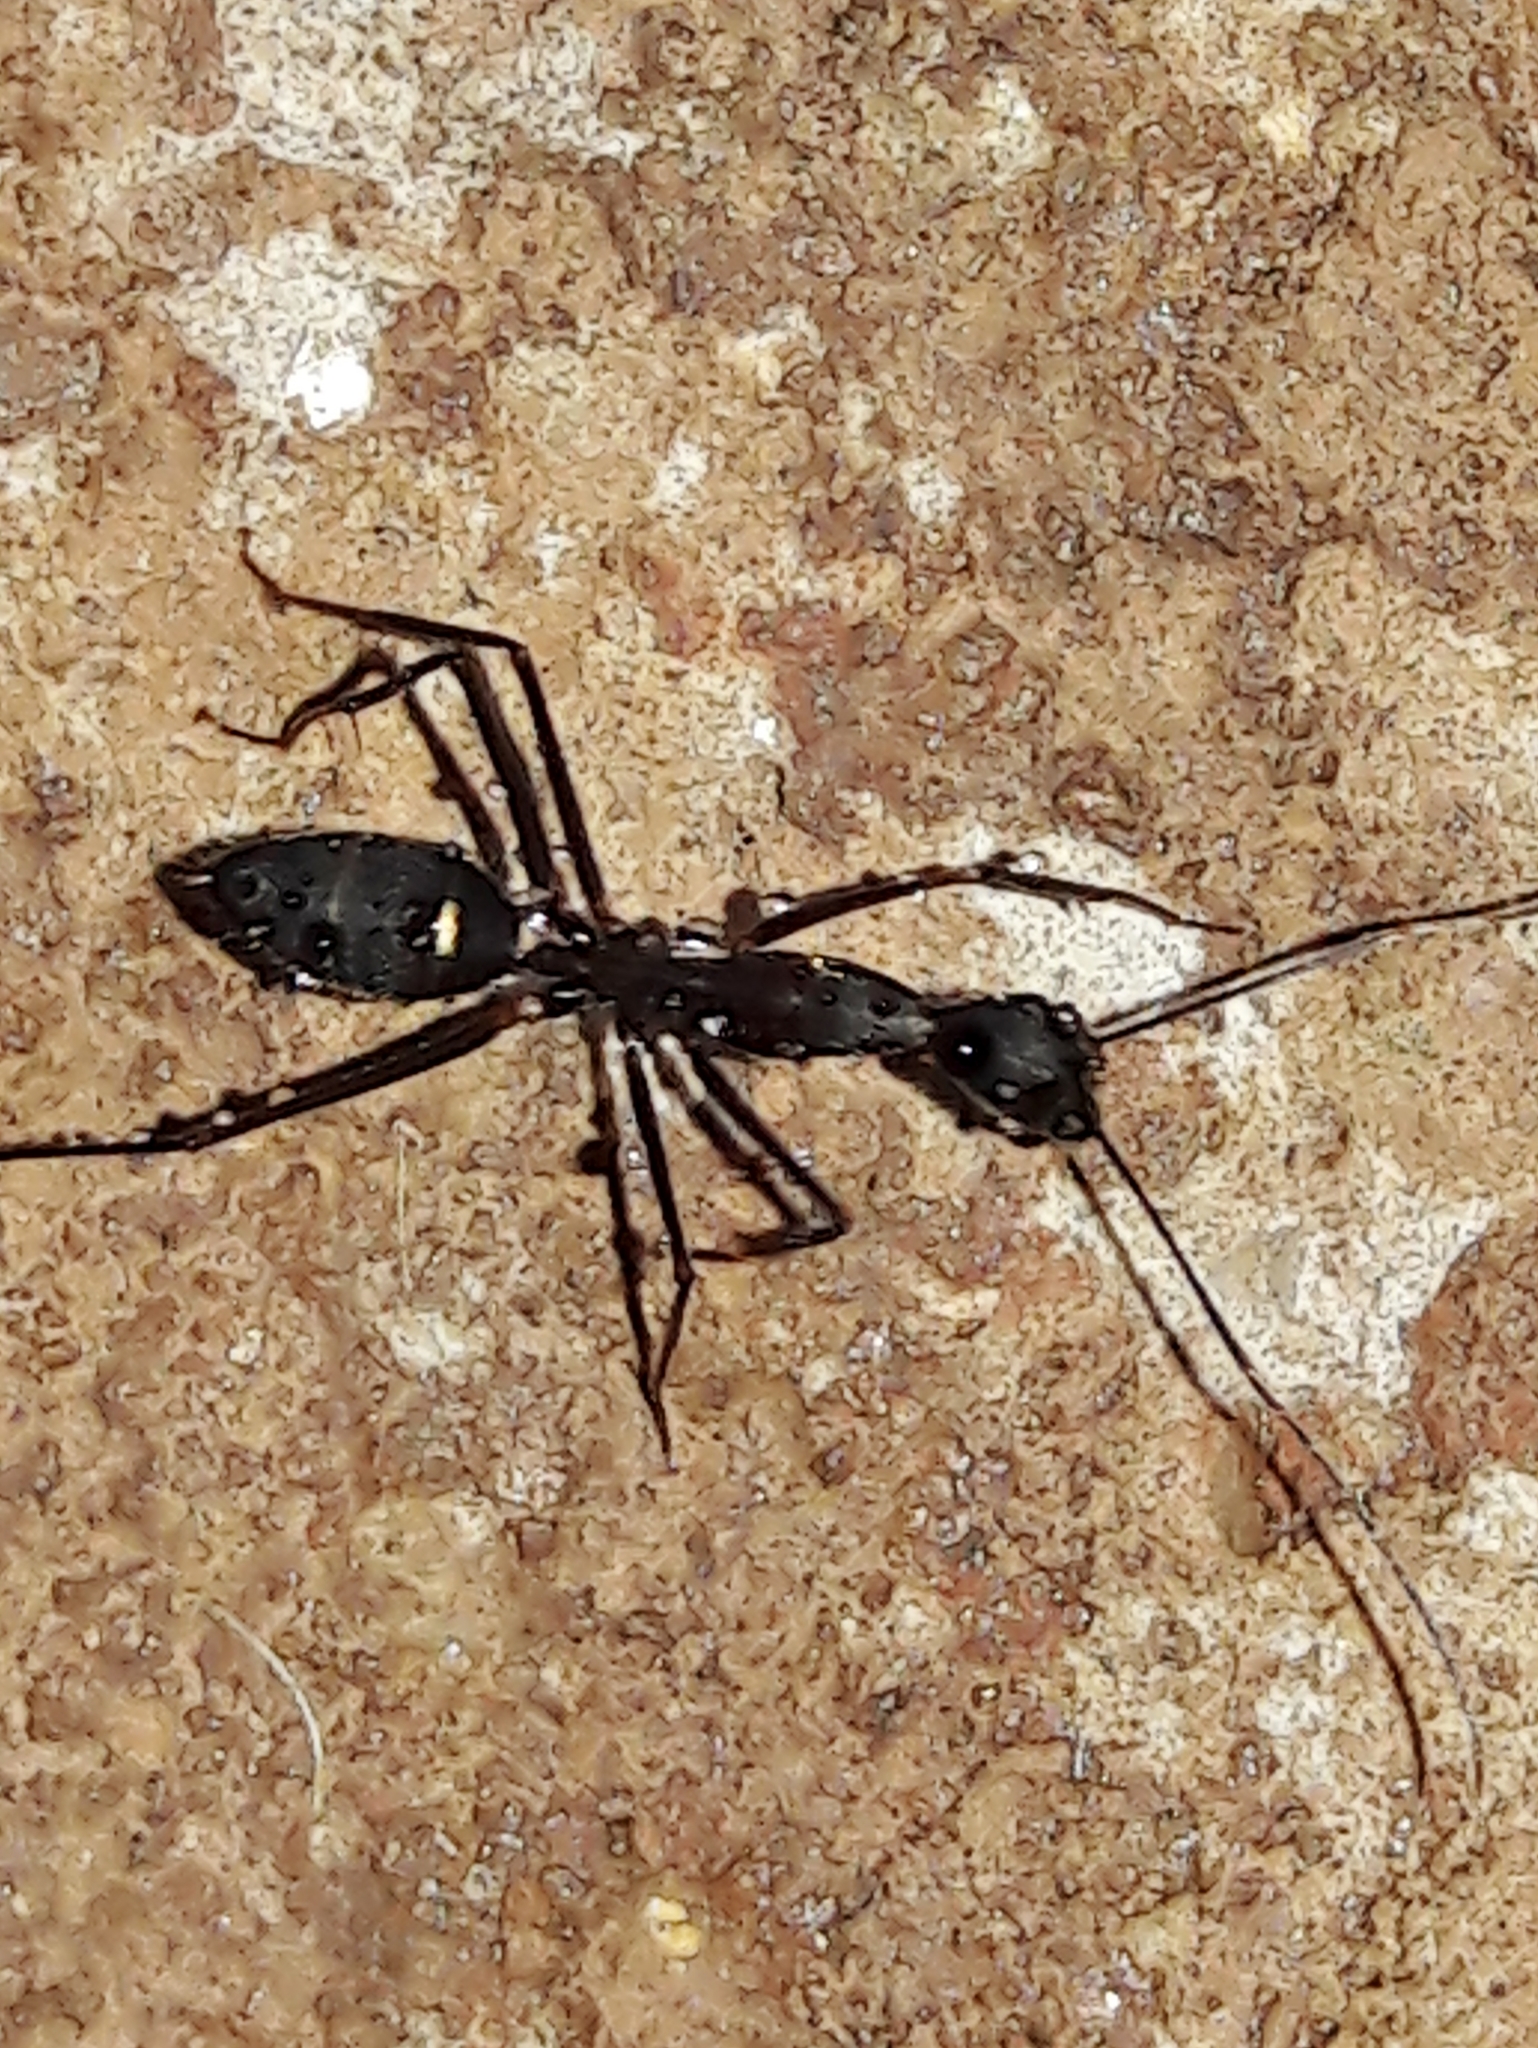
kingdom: Animalia
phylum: Arthropoda
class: Insecta
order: Hymenoptera
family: Formicidae
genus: Camponotus
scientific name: Camponotus lespesii
